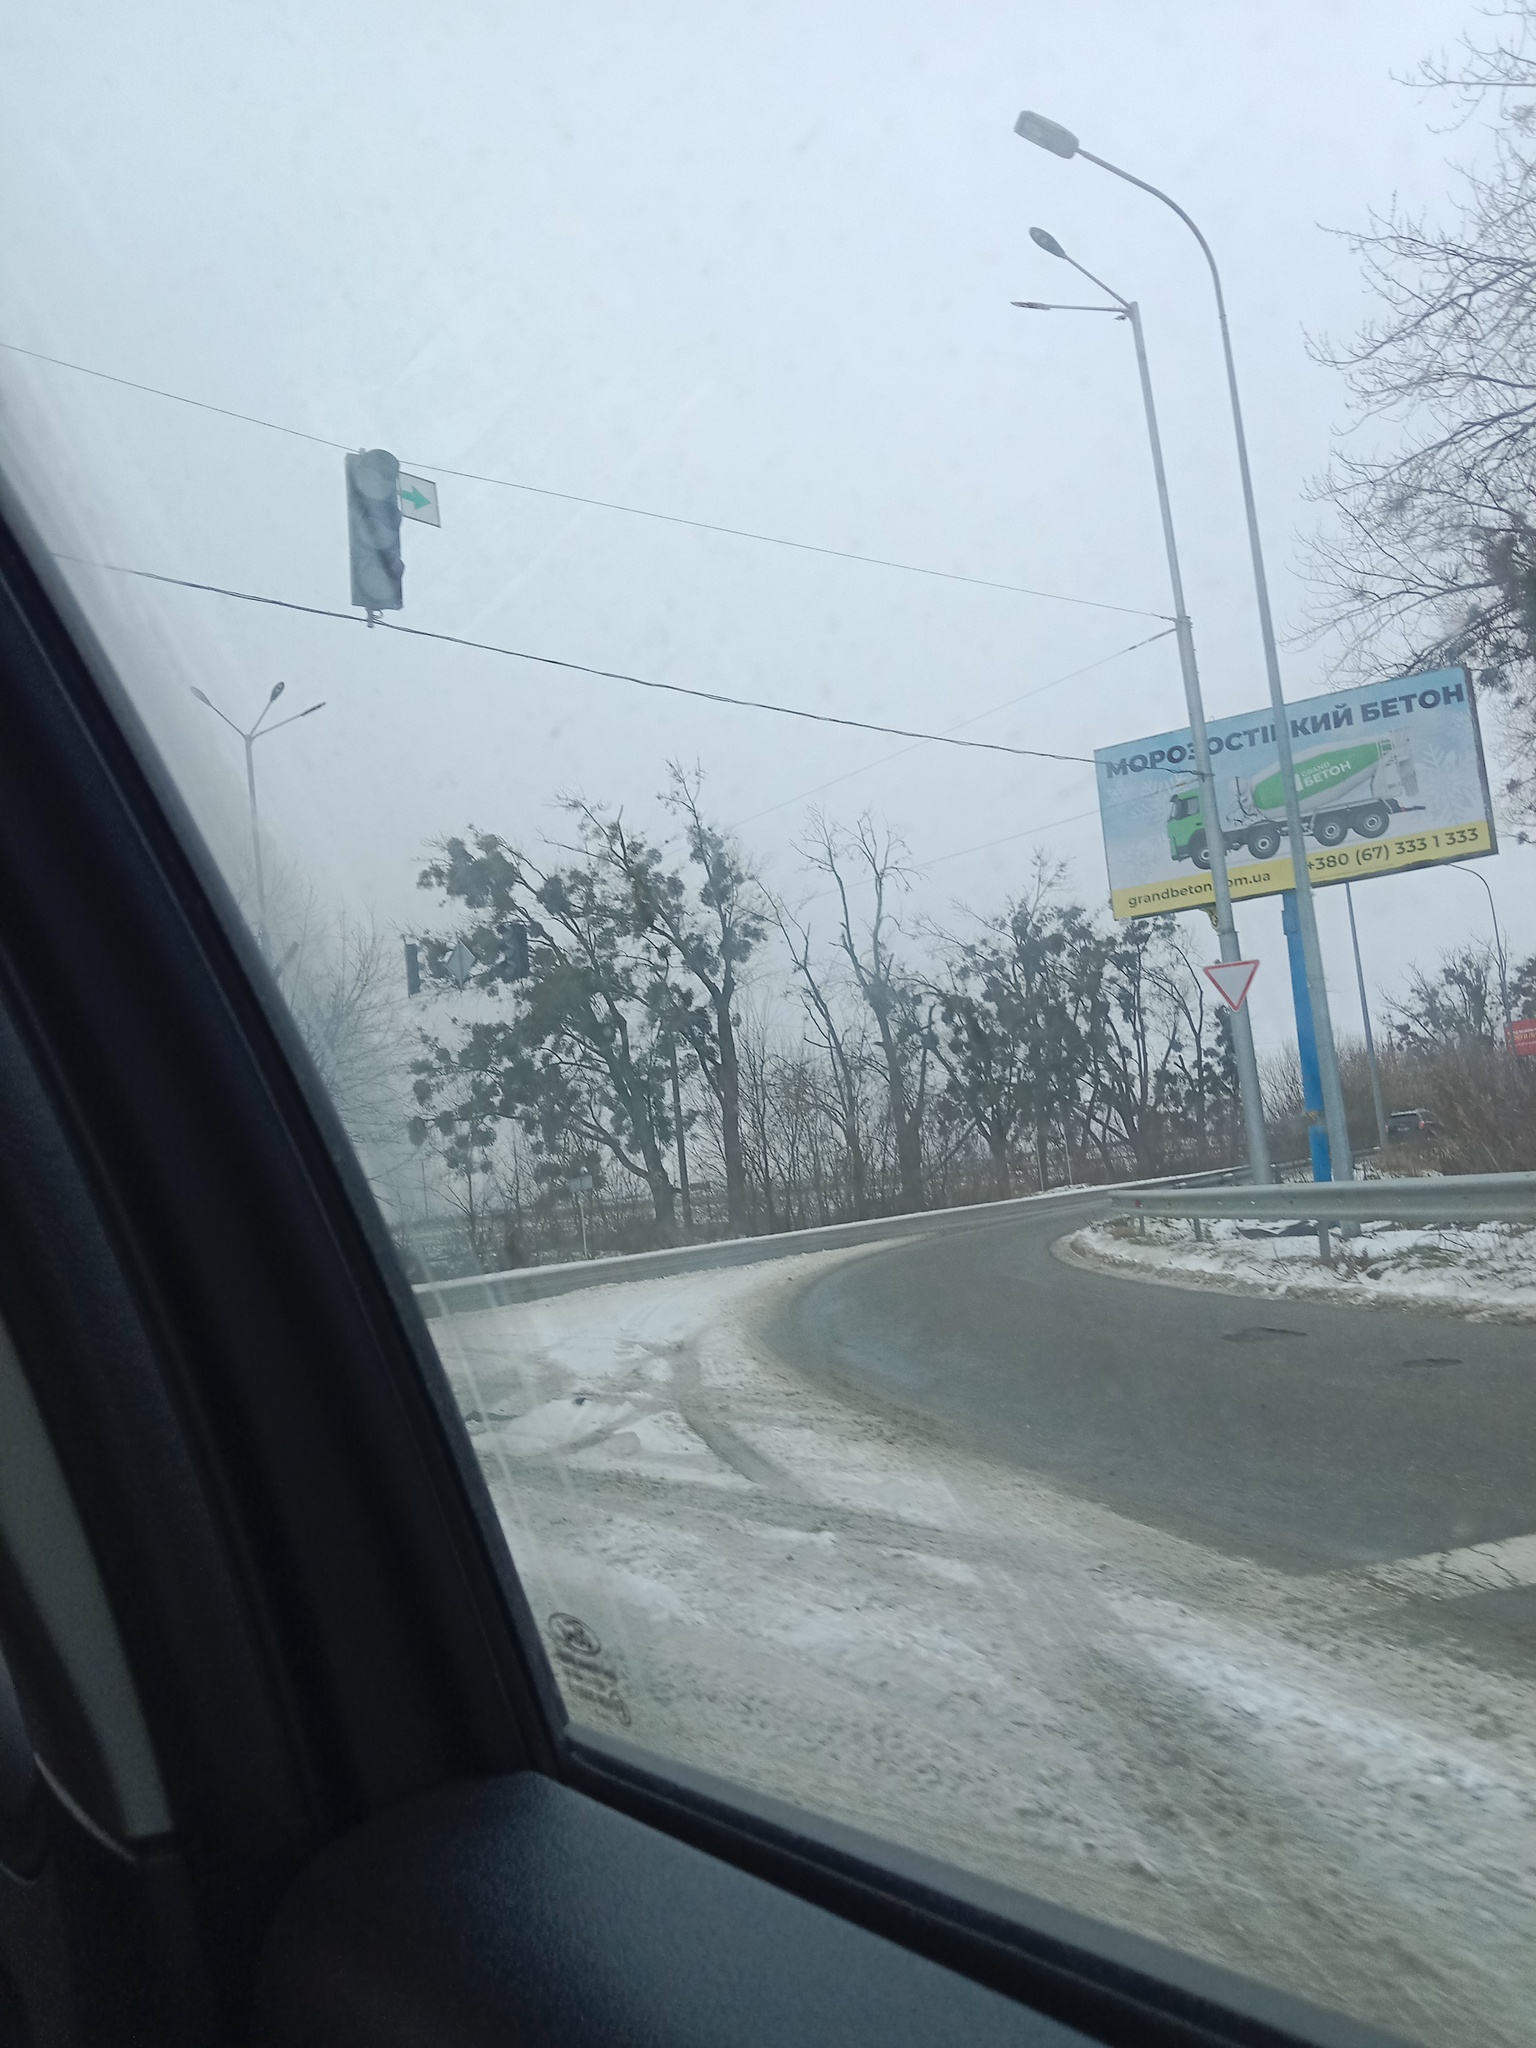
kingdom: Plantae
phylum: Tracheophyta
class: Magnoliopsida
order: Santalales
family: Viscaceae
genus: Viscum
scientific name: Viscum album
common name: Mistletoe
